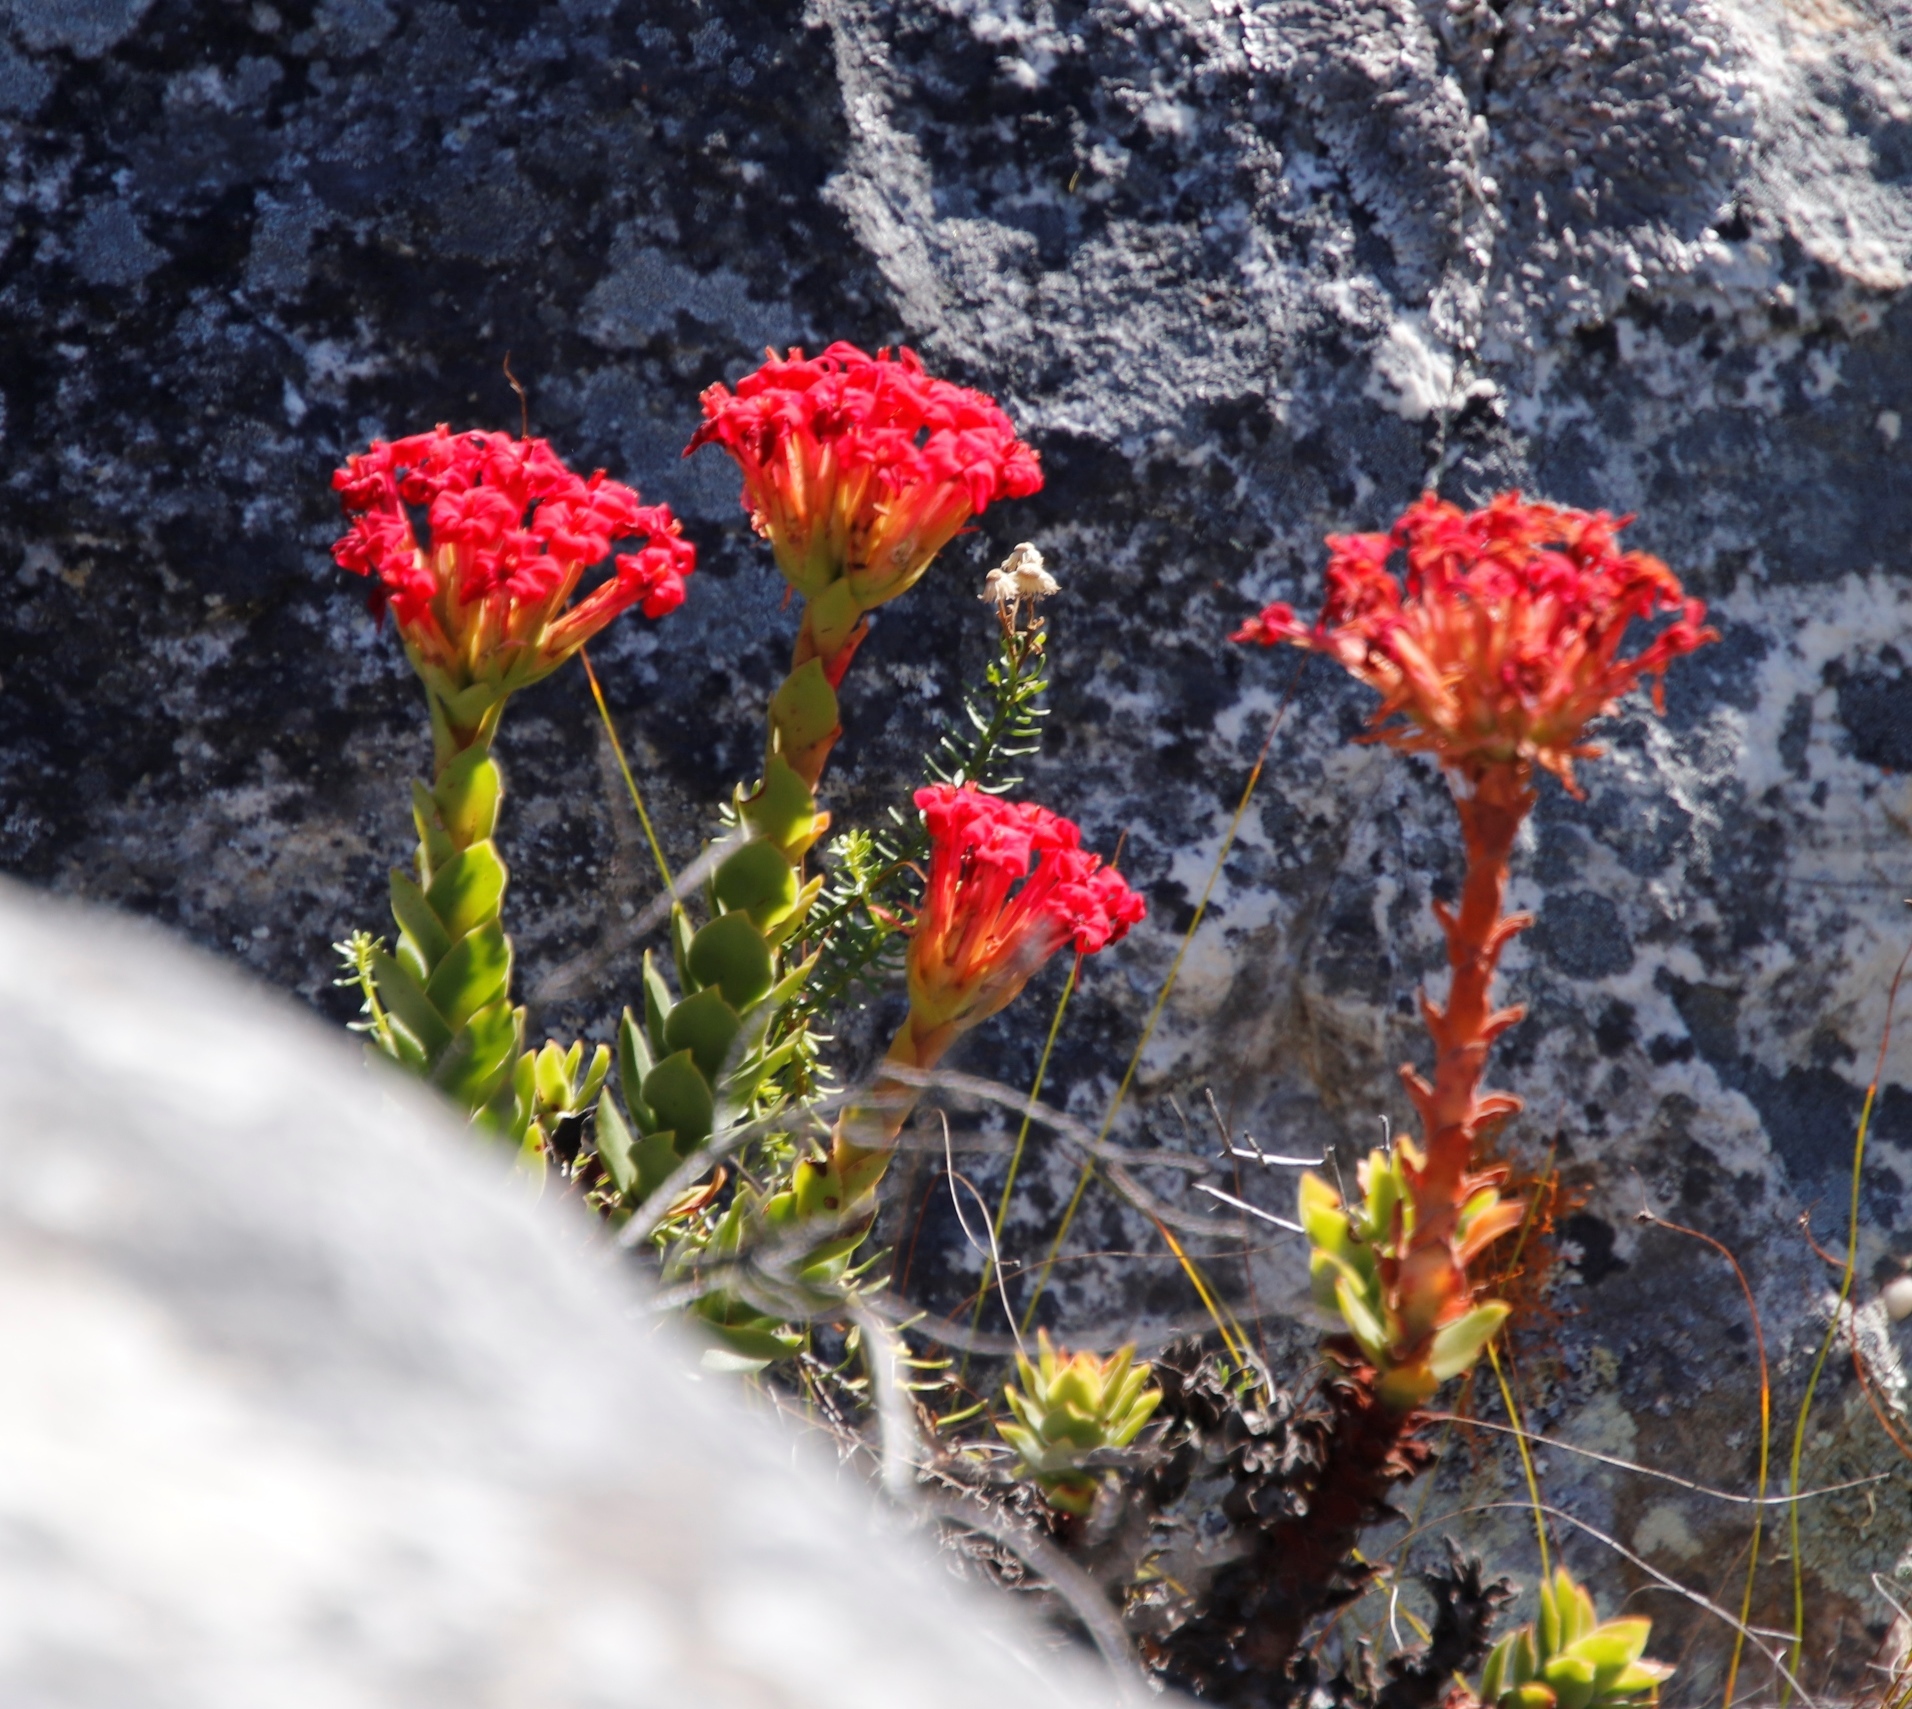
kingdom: Plantae
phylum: Tracheophyta
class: Magnoliopsida
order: Saxifragales
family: Crassulaceae
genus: Crassula
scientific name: Crassula coccinea
